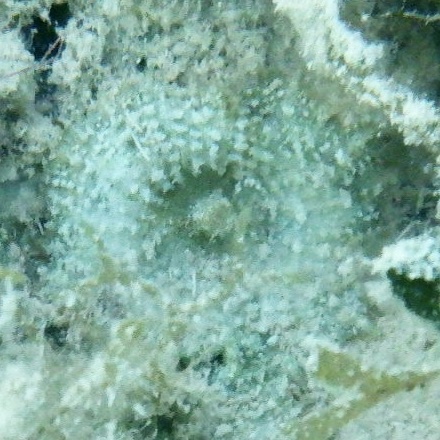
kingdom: Animalia
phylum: Cnidaria
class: Anthozoa
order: Corallimorpharia
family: Discosomidae
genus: Discosoma
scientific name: Discosoma carlgreni
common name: Forked-tentacle corallimorpharian
